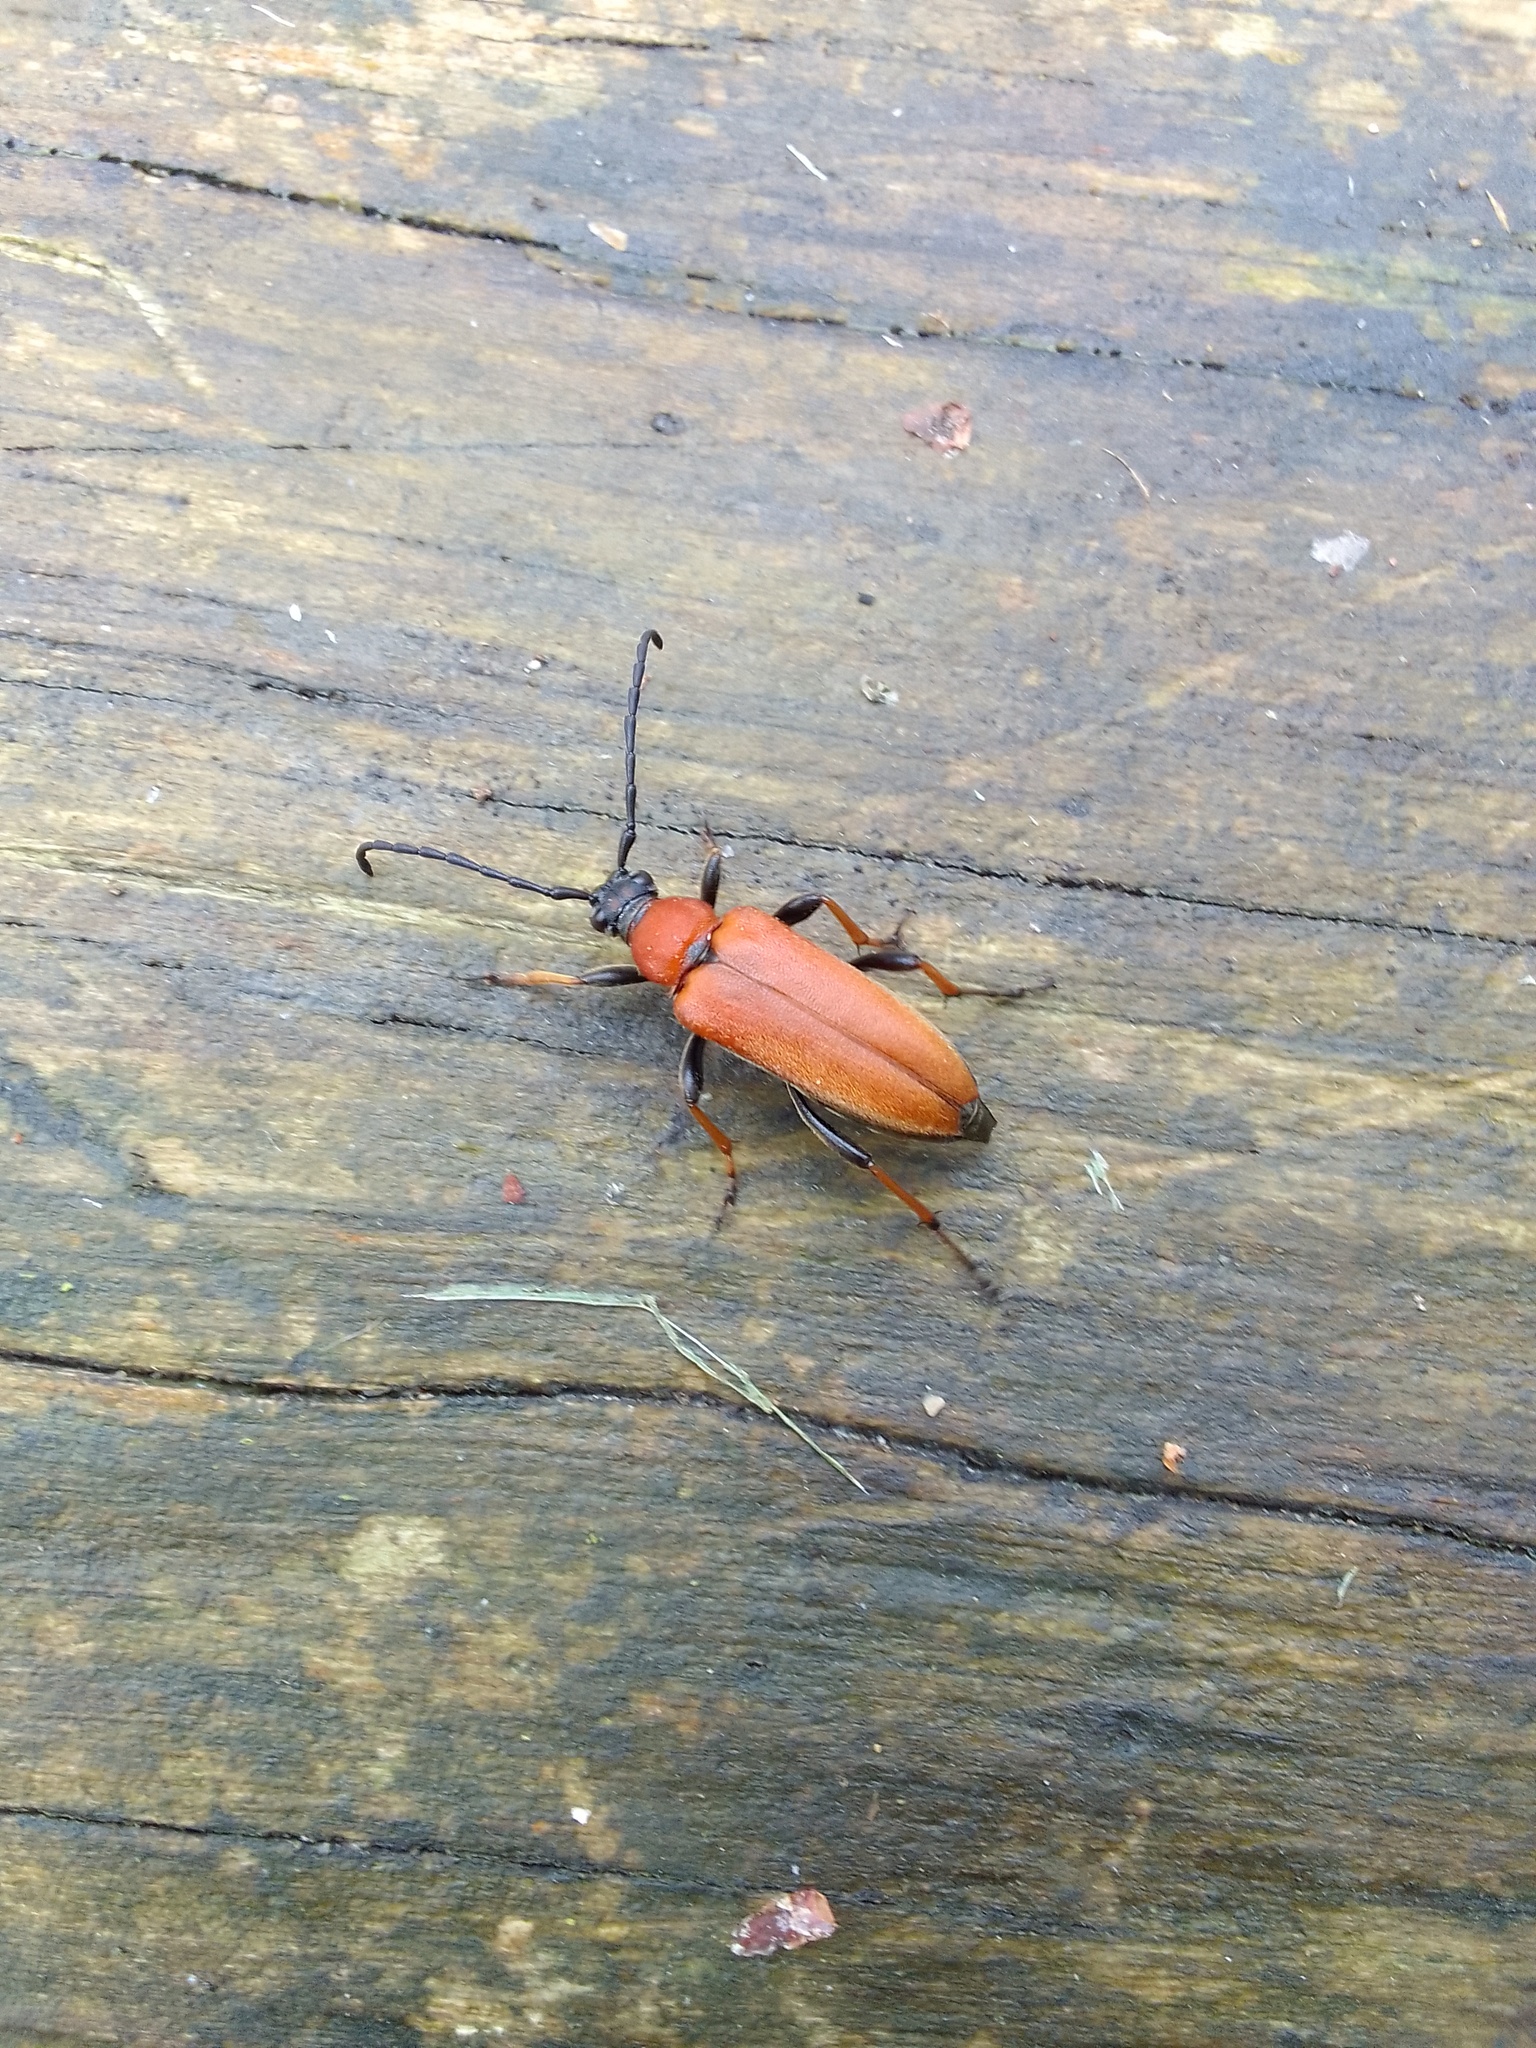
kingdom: Animalia
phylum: Arthropoda
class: Insecta
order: Coleoptera
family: Cerambycidae
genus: Stictoleptura
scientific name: Stictoleptura rubra
